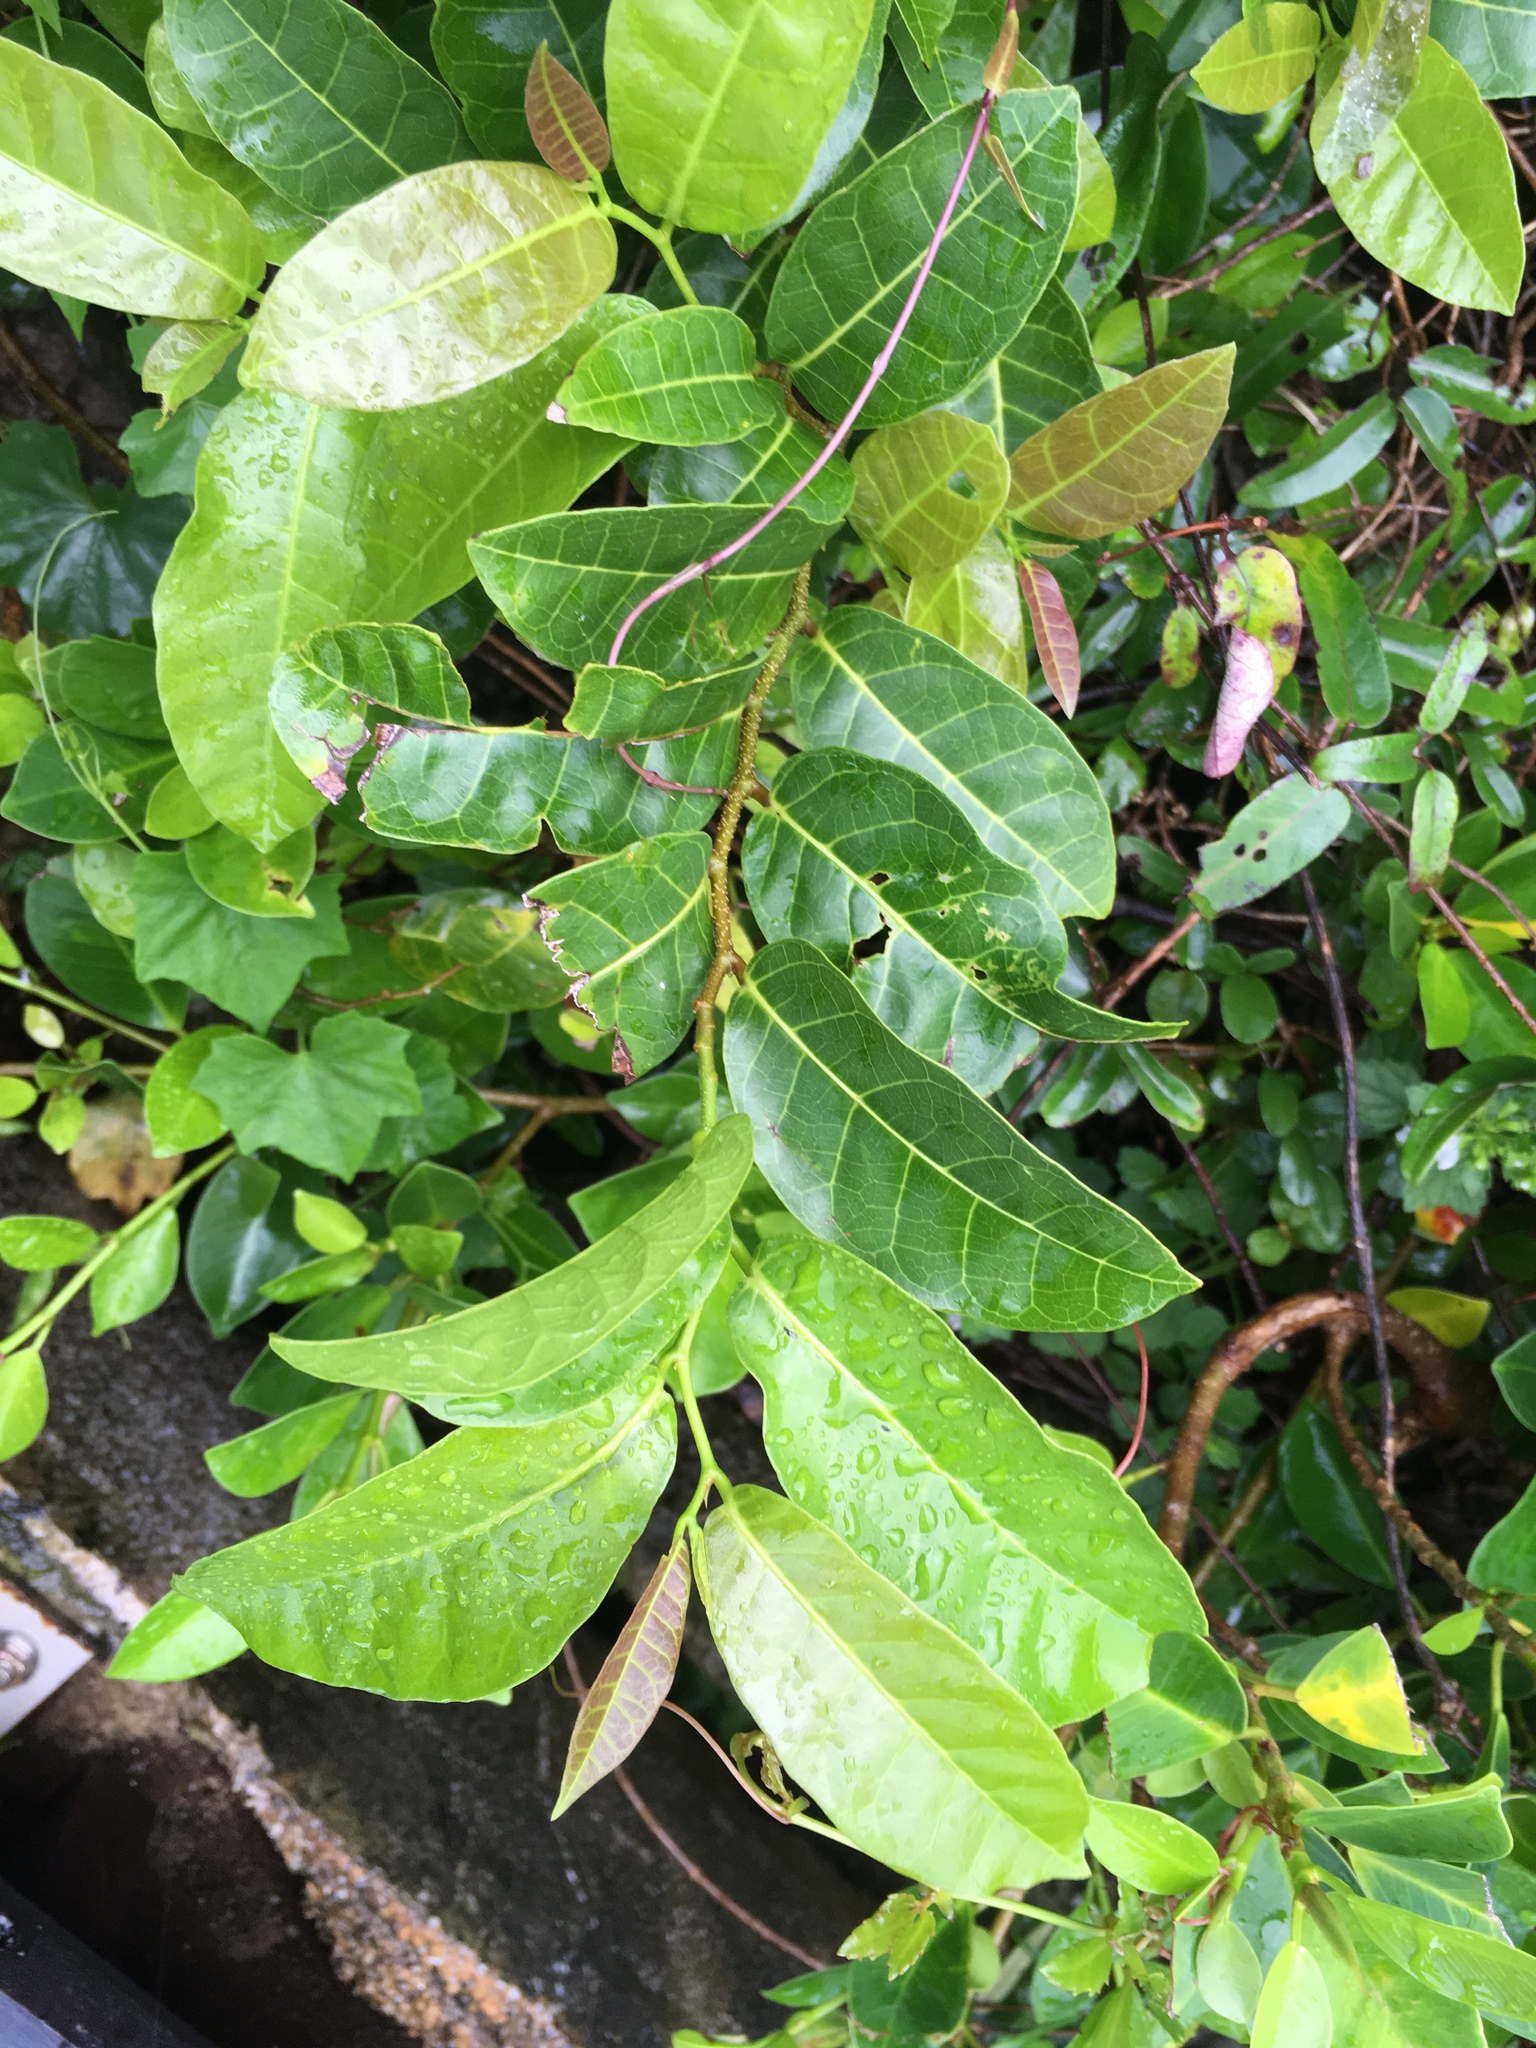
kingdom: Plantae
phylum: Tracheophyta
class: Magnoliopsida
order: Rosales
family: Moraceae
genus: Malaisia
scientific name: Malaisia scandens
